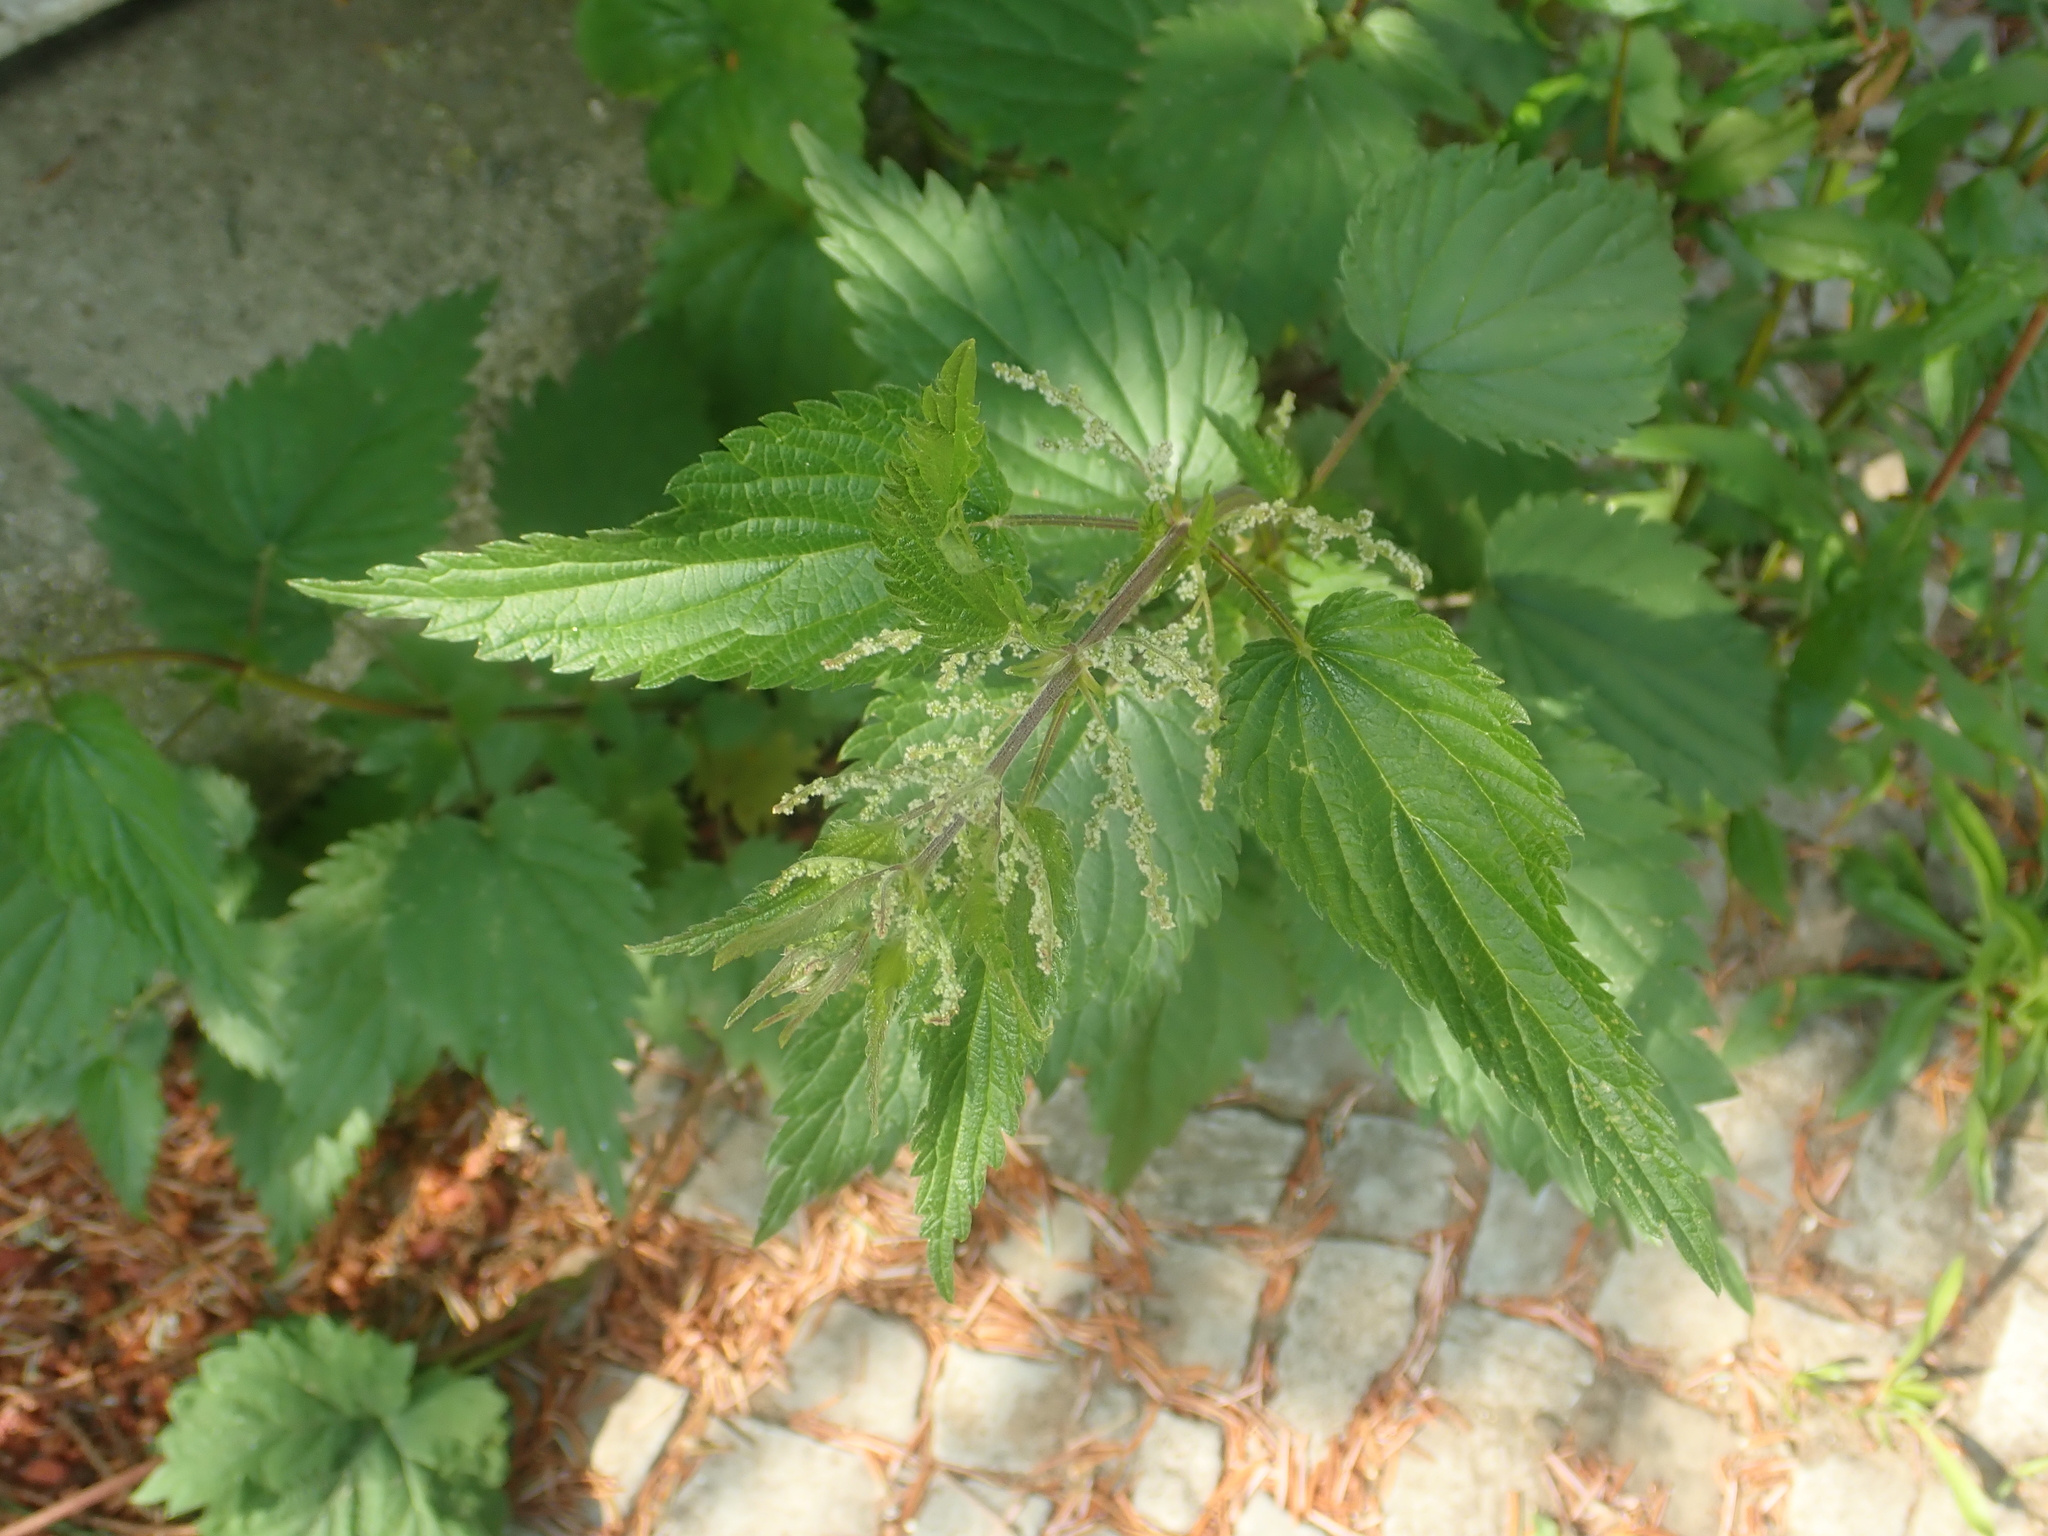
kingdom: Plantae
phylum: Tracheophyta
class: Magnoliopsida
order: Rosales
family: Urticaceae
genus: Urtica
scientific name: Urtica dioica
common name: Common nettle
